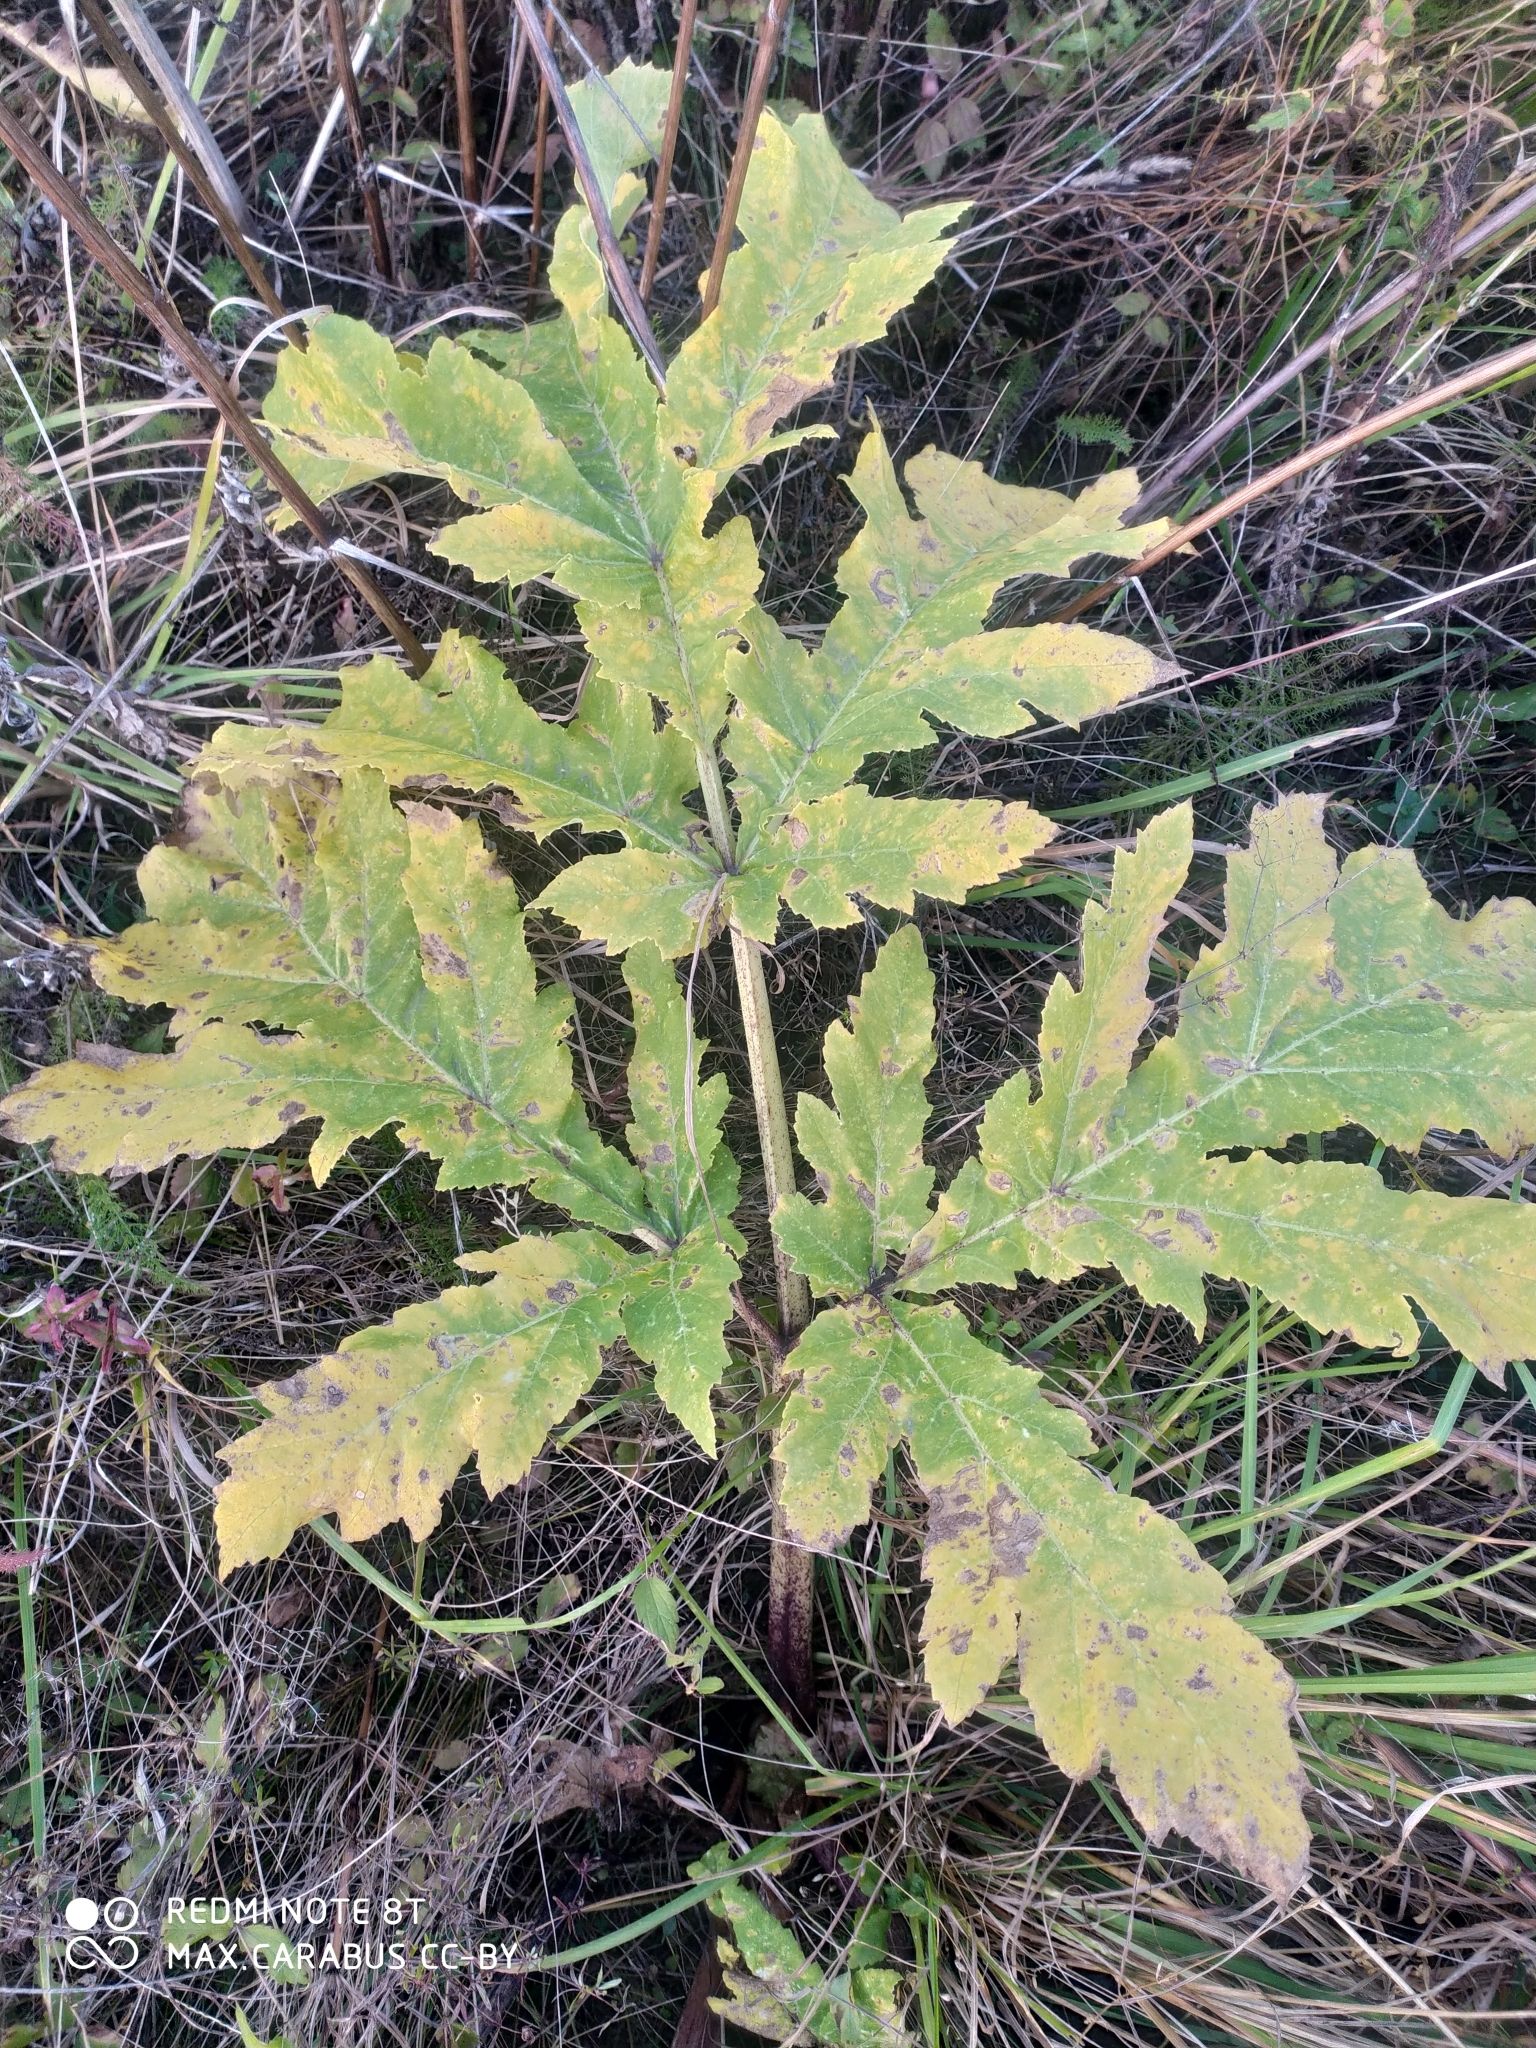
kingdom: Plantae
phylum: Tracheophyta
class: Magnoliopsida
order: Apiales
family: Apiaceae
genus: Heracleum
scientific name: Heracleum sosnowskyi
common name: Sosnowsky's hogweed
